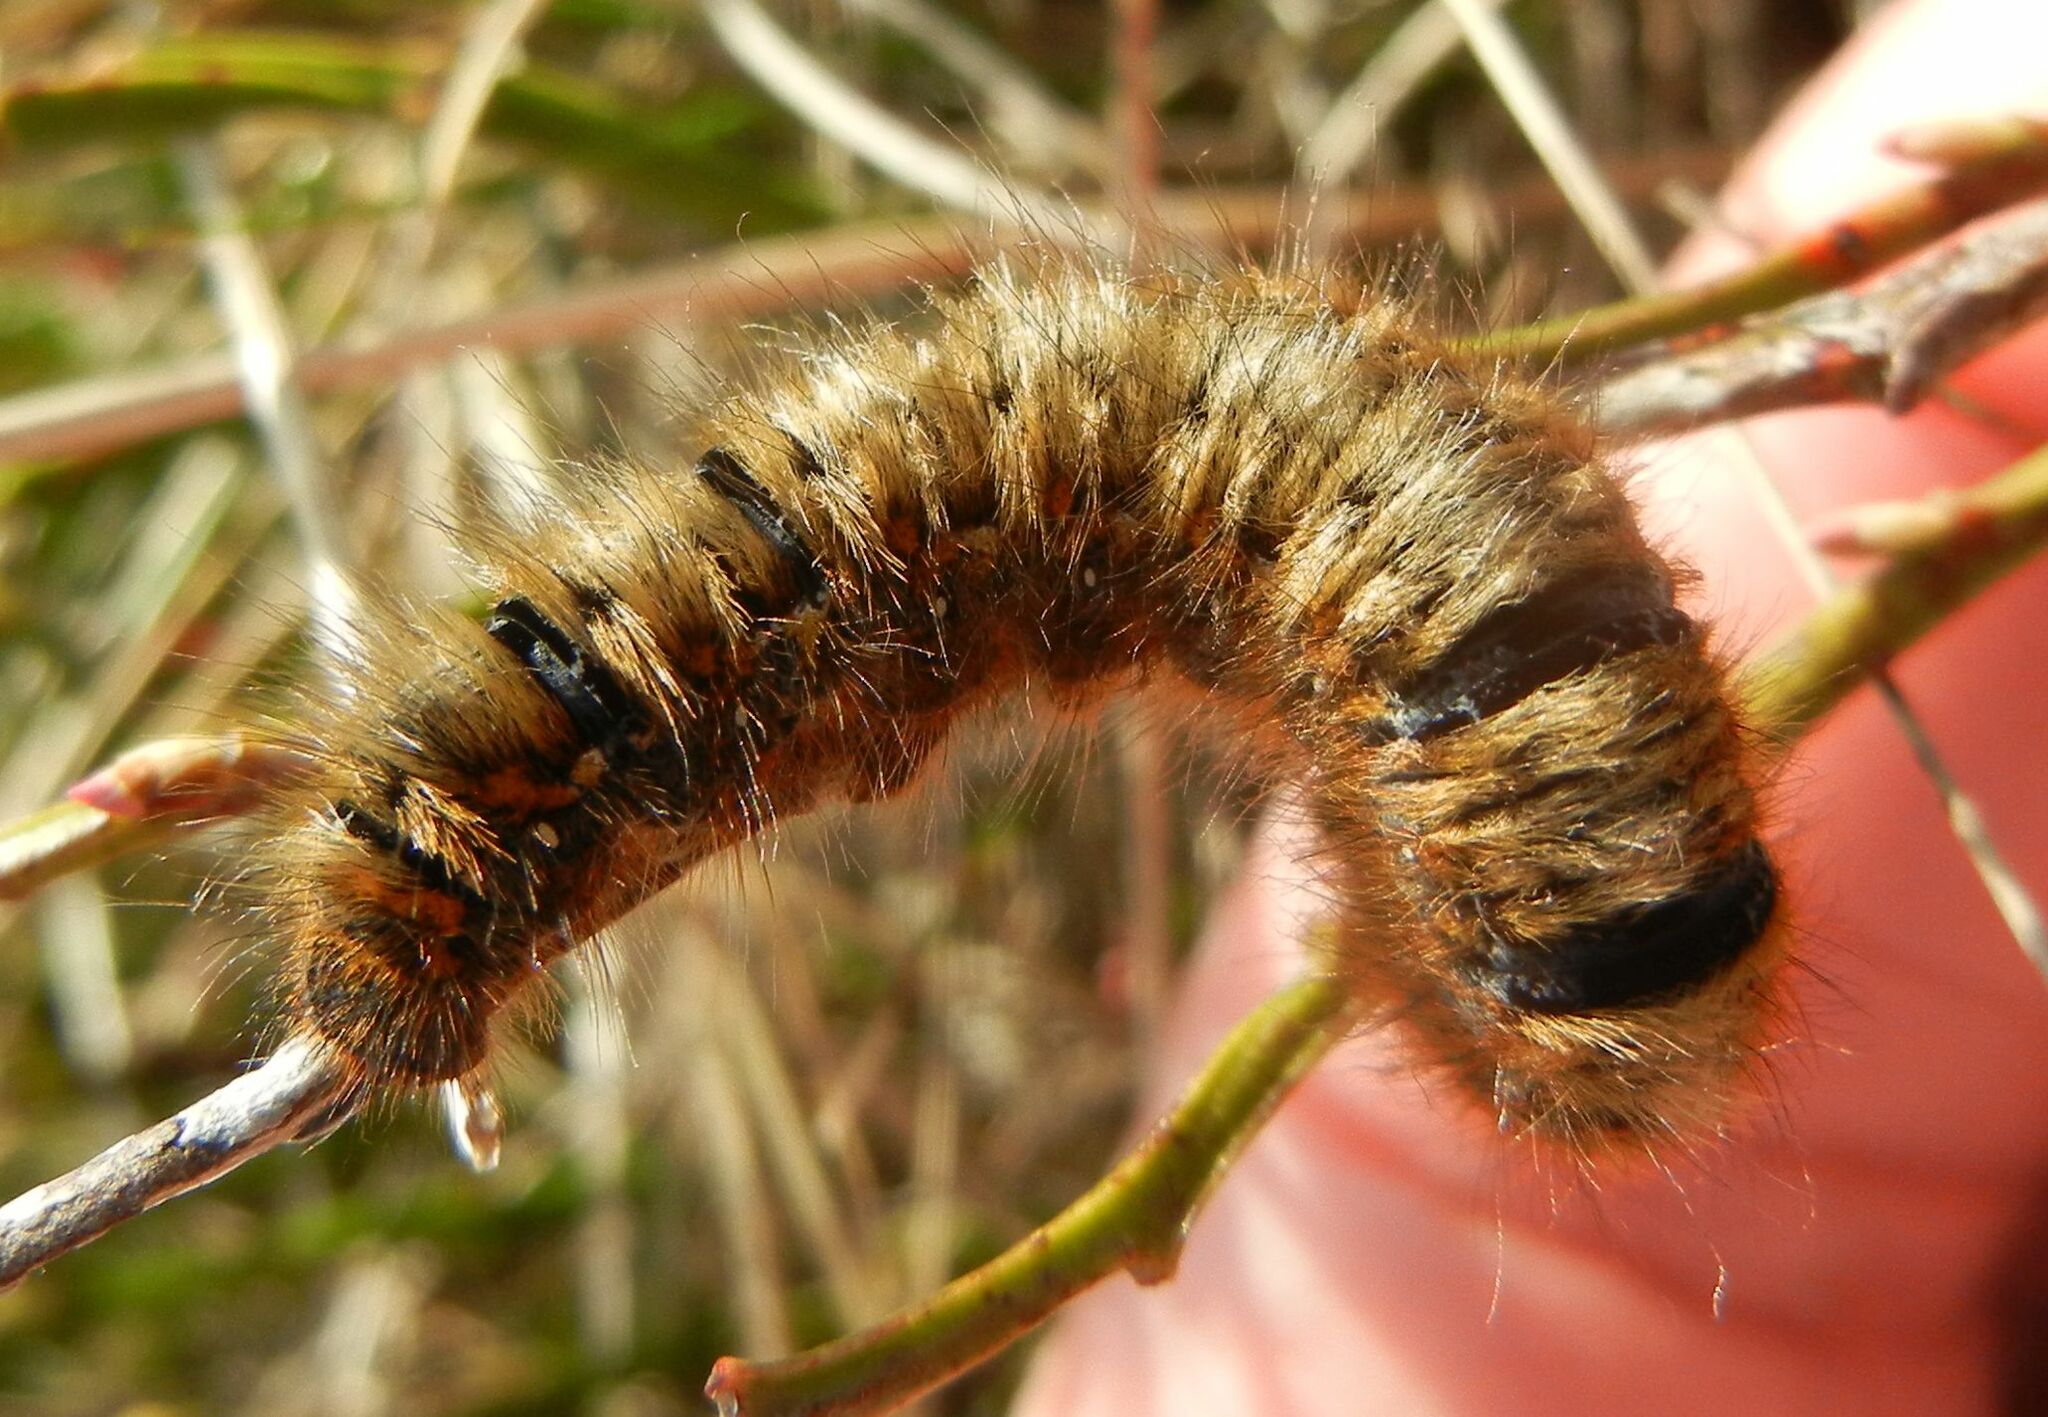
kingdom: Animalia
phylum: Arthropoda
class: Insecta
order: Lepidoptera
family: Lasiocampidae
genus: Lasiocampa
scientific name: Lasiocampa quercus
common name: Oak eggar
